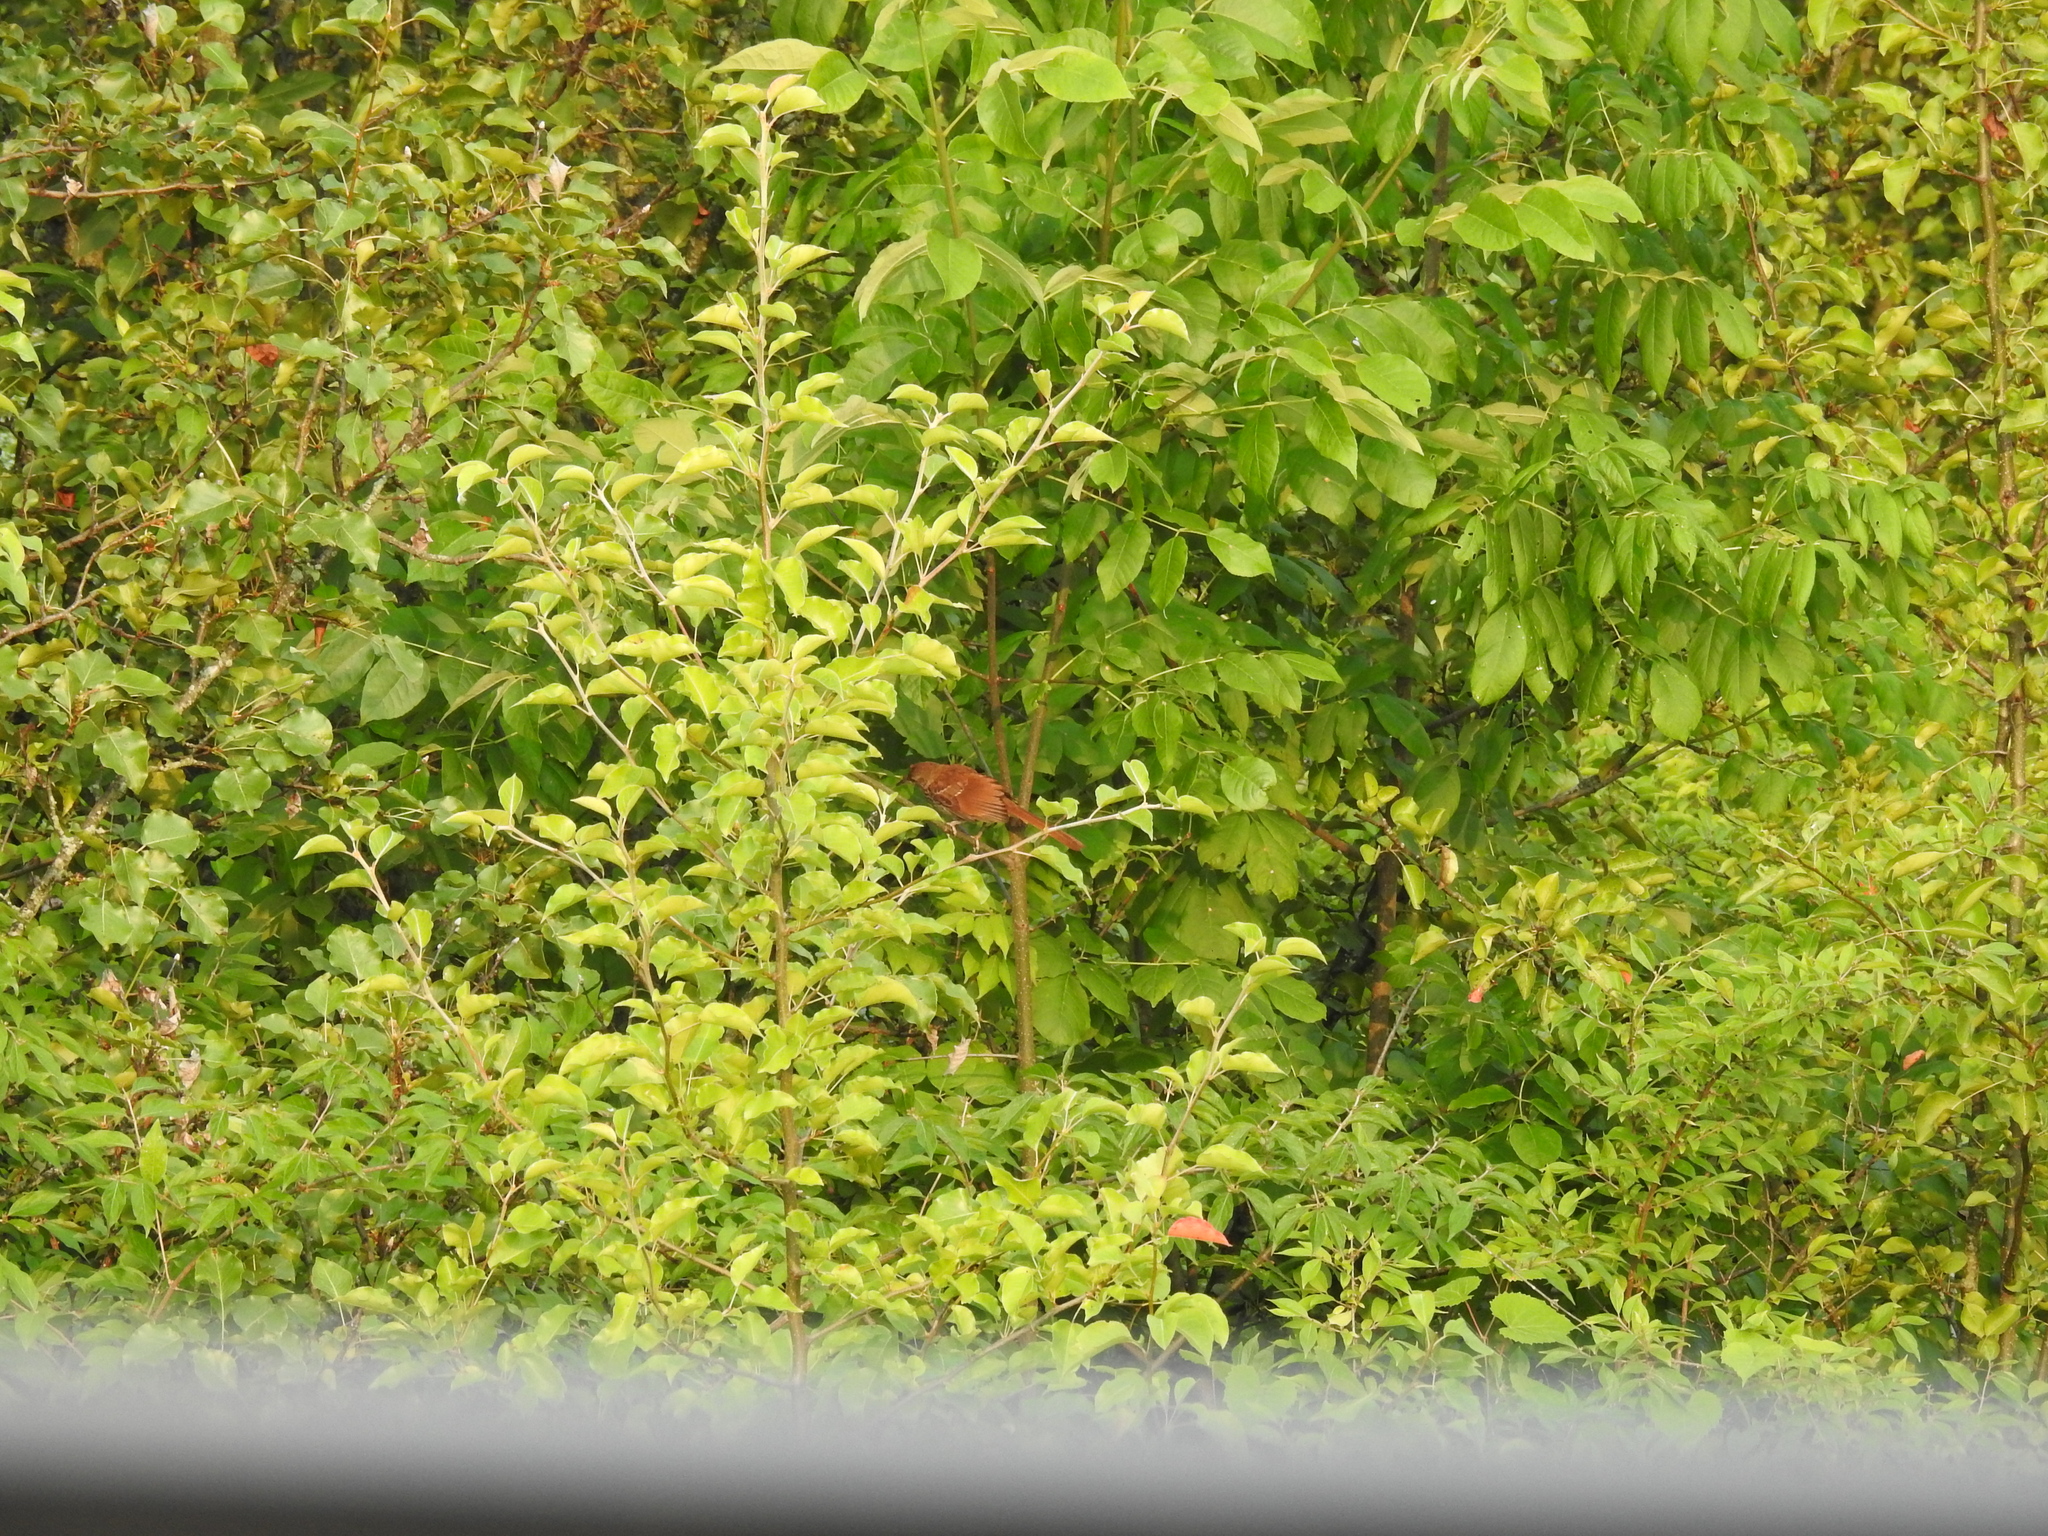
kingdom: Animalia
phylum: Chordata
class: Aves
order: Passeriformes
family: Mimidae
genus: Toxostoma
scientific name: Toxostoma rufum
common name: Brown thrasher
